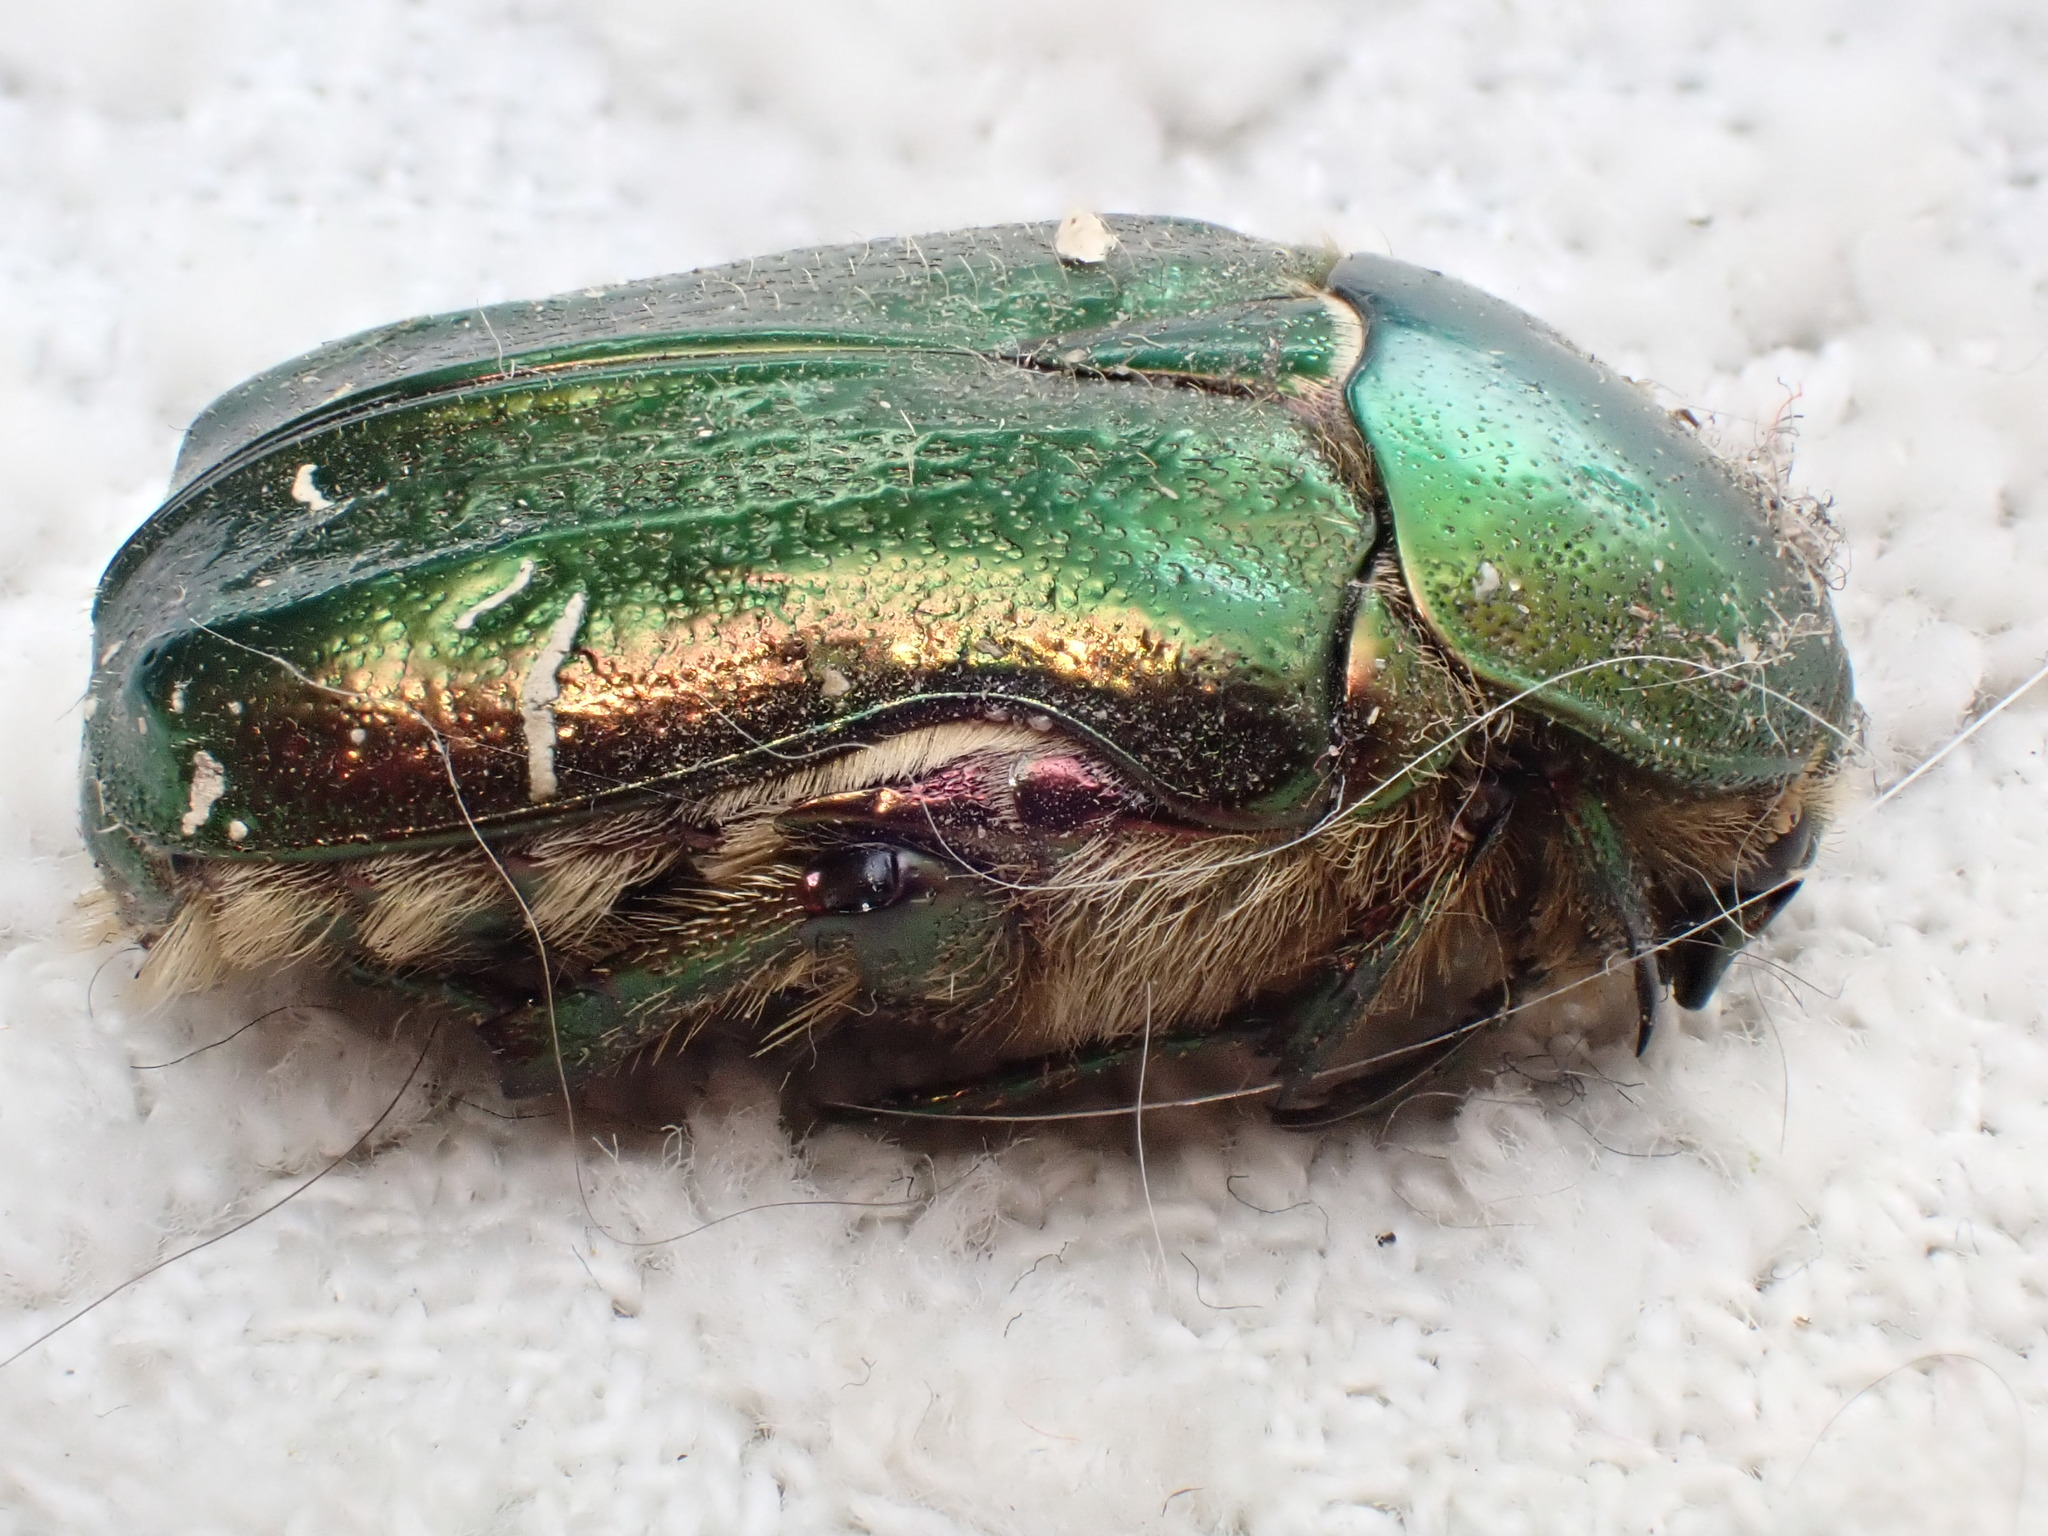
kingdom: Animalia
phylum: Arthropoda
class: Insecta
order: Coleoptera
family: Scarabaeidae
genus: Cetonia
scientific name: Cetonia aurata
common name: Rose chafer
